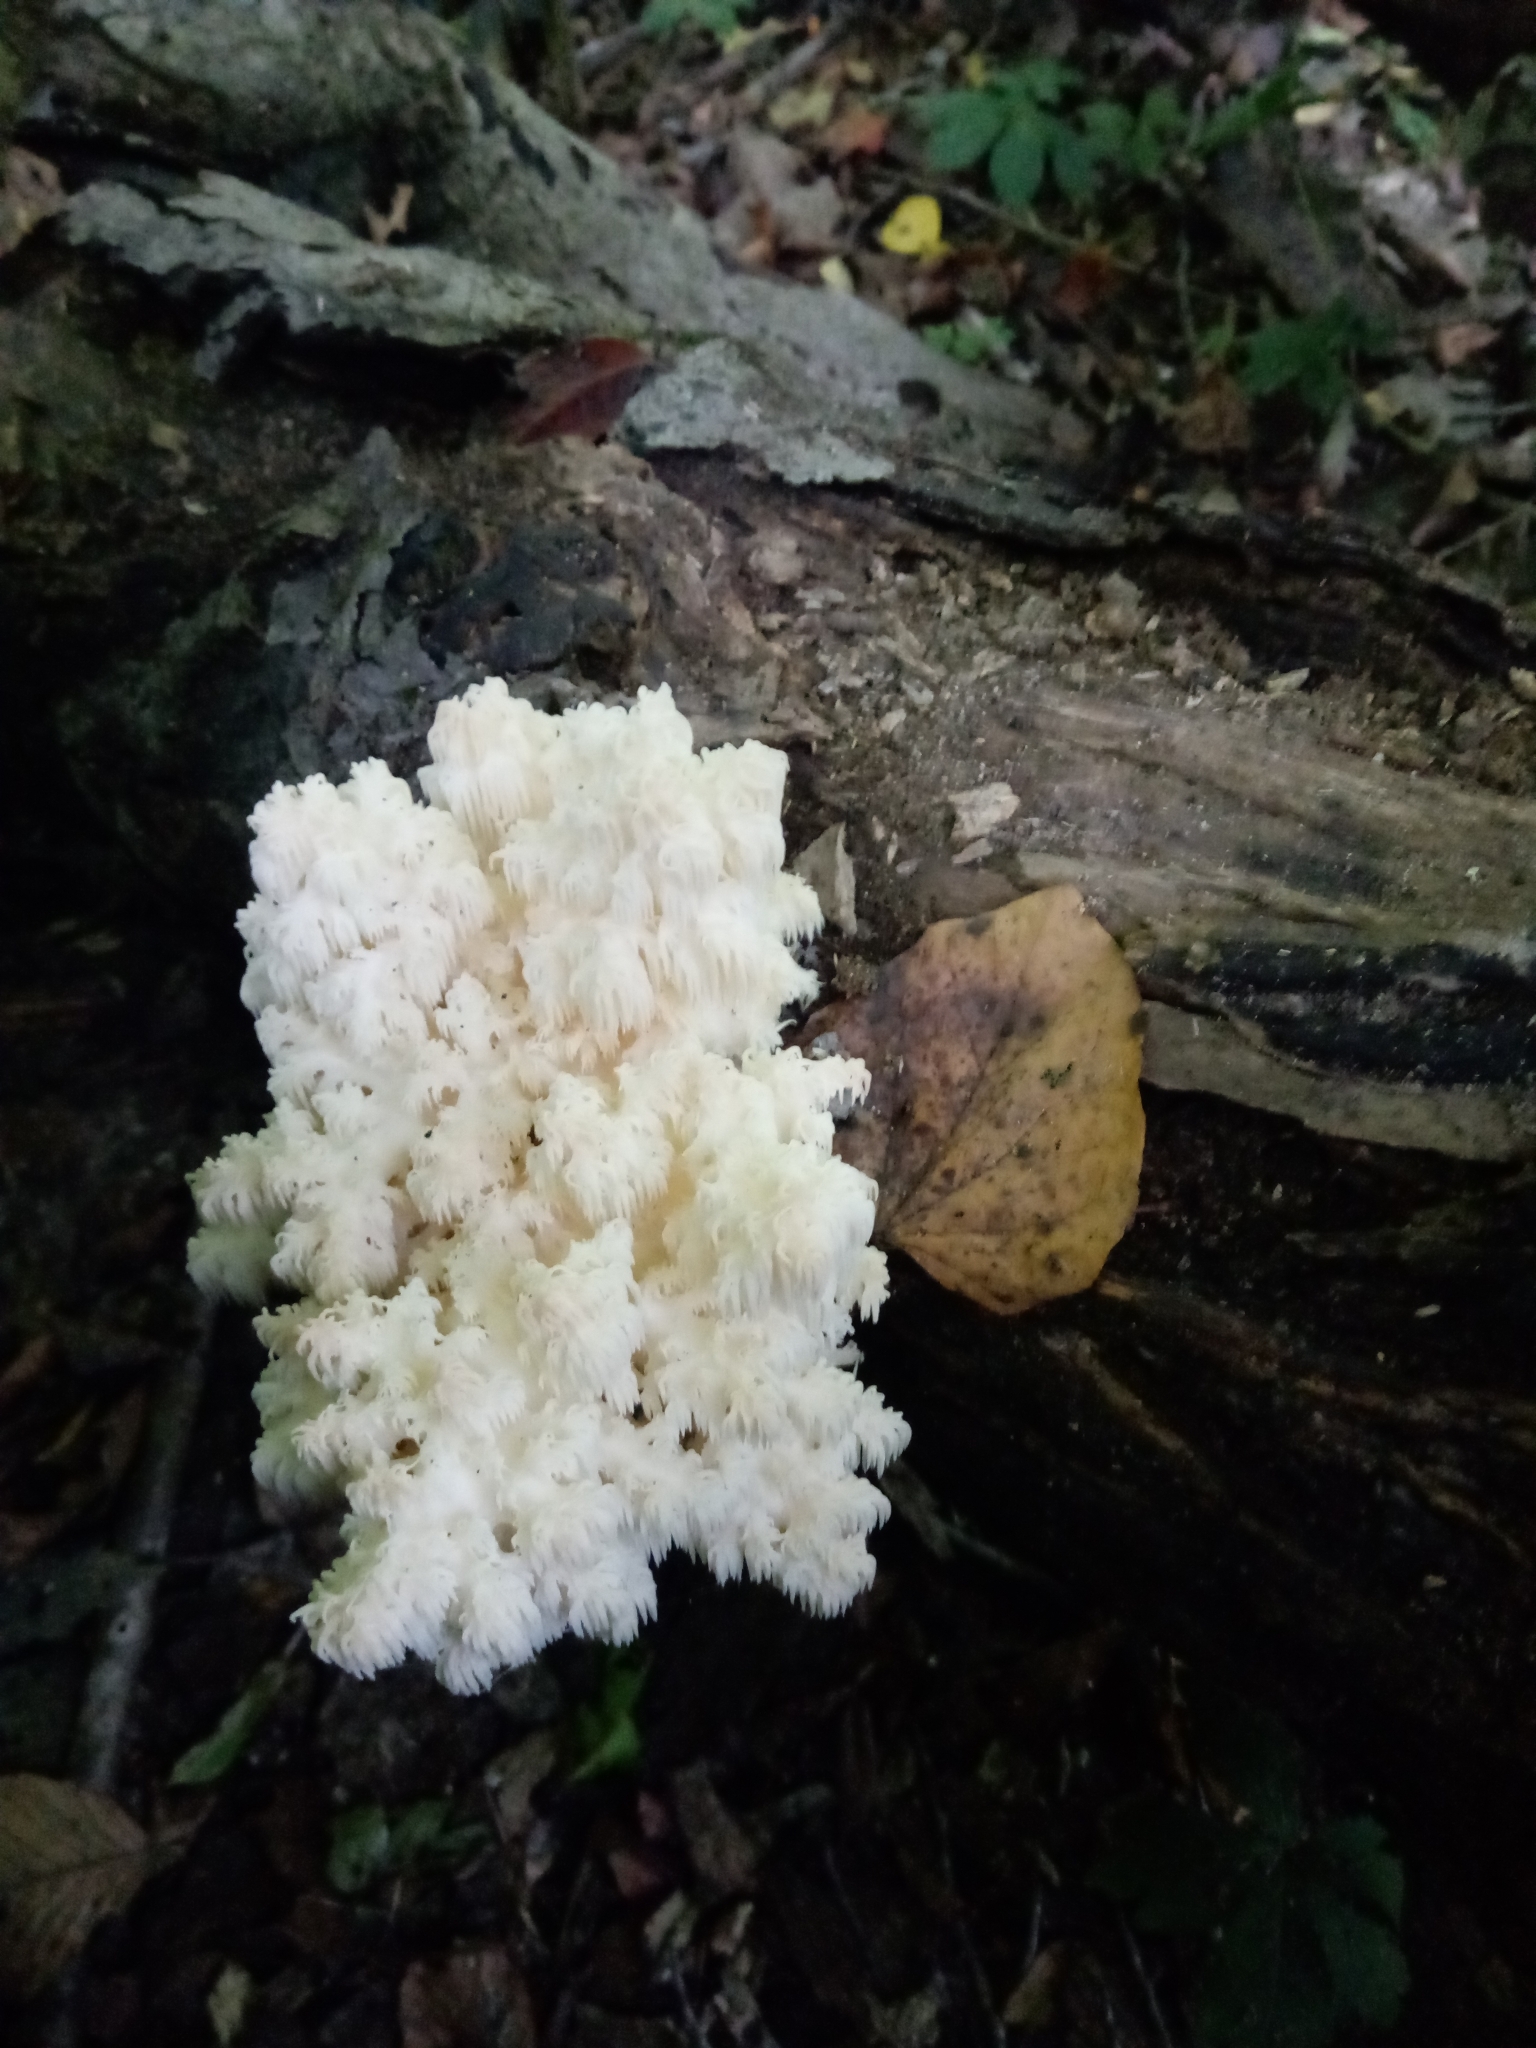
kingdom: Fungi
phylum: Basidiomycota
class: Agaricomycetes
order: Russulales
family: Hericiaceae
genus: Hericium
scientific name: Hericium americanum
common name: Bear's head tooth
